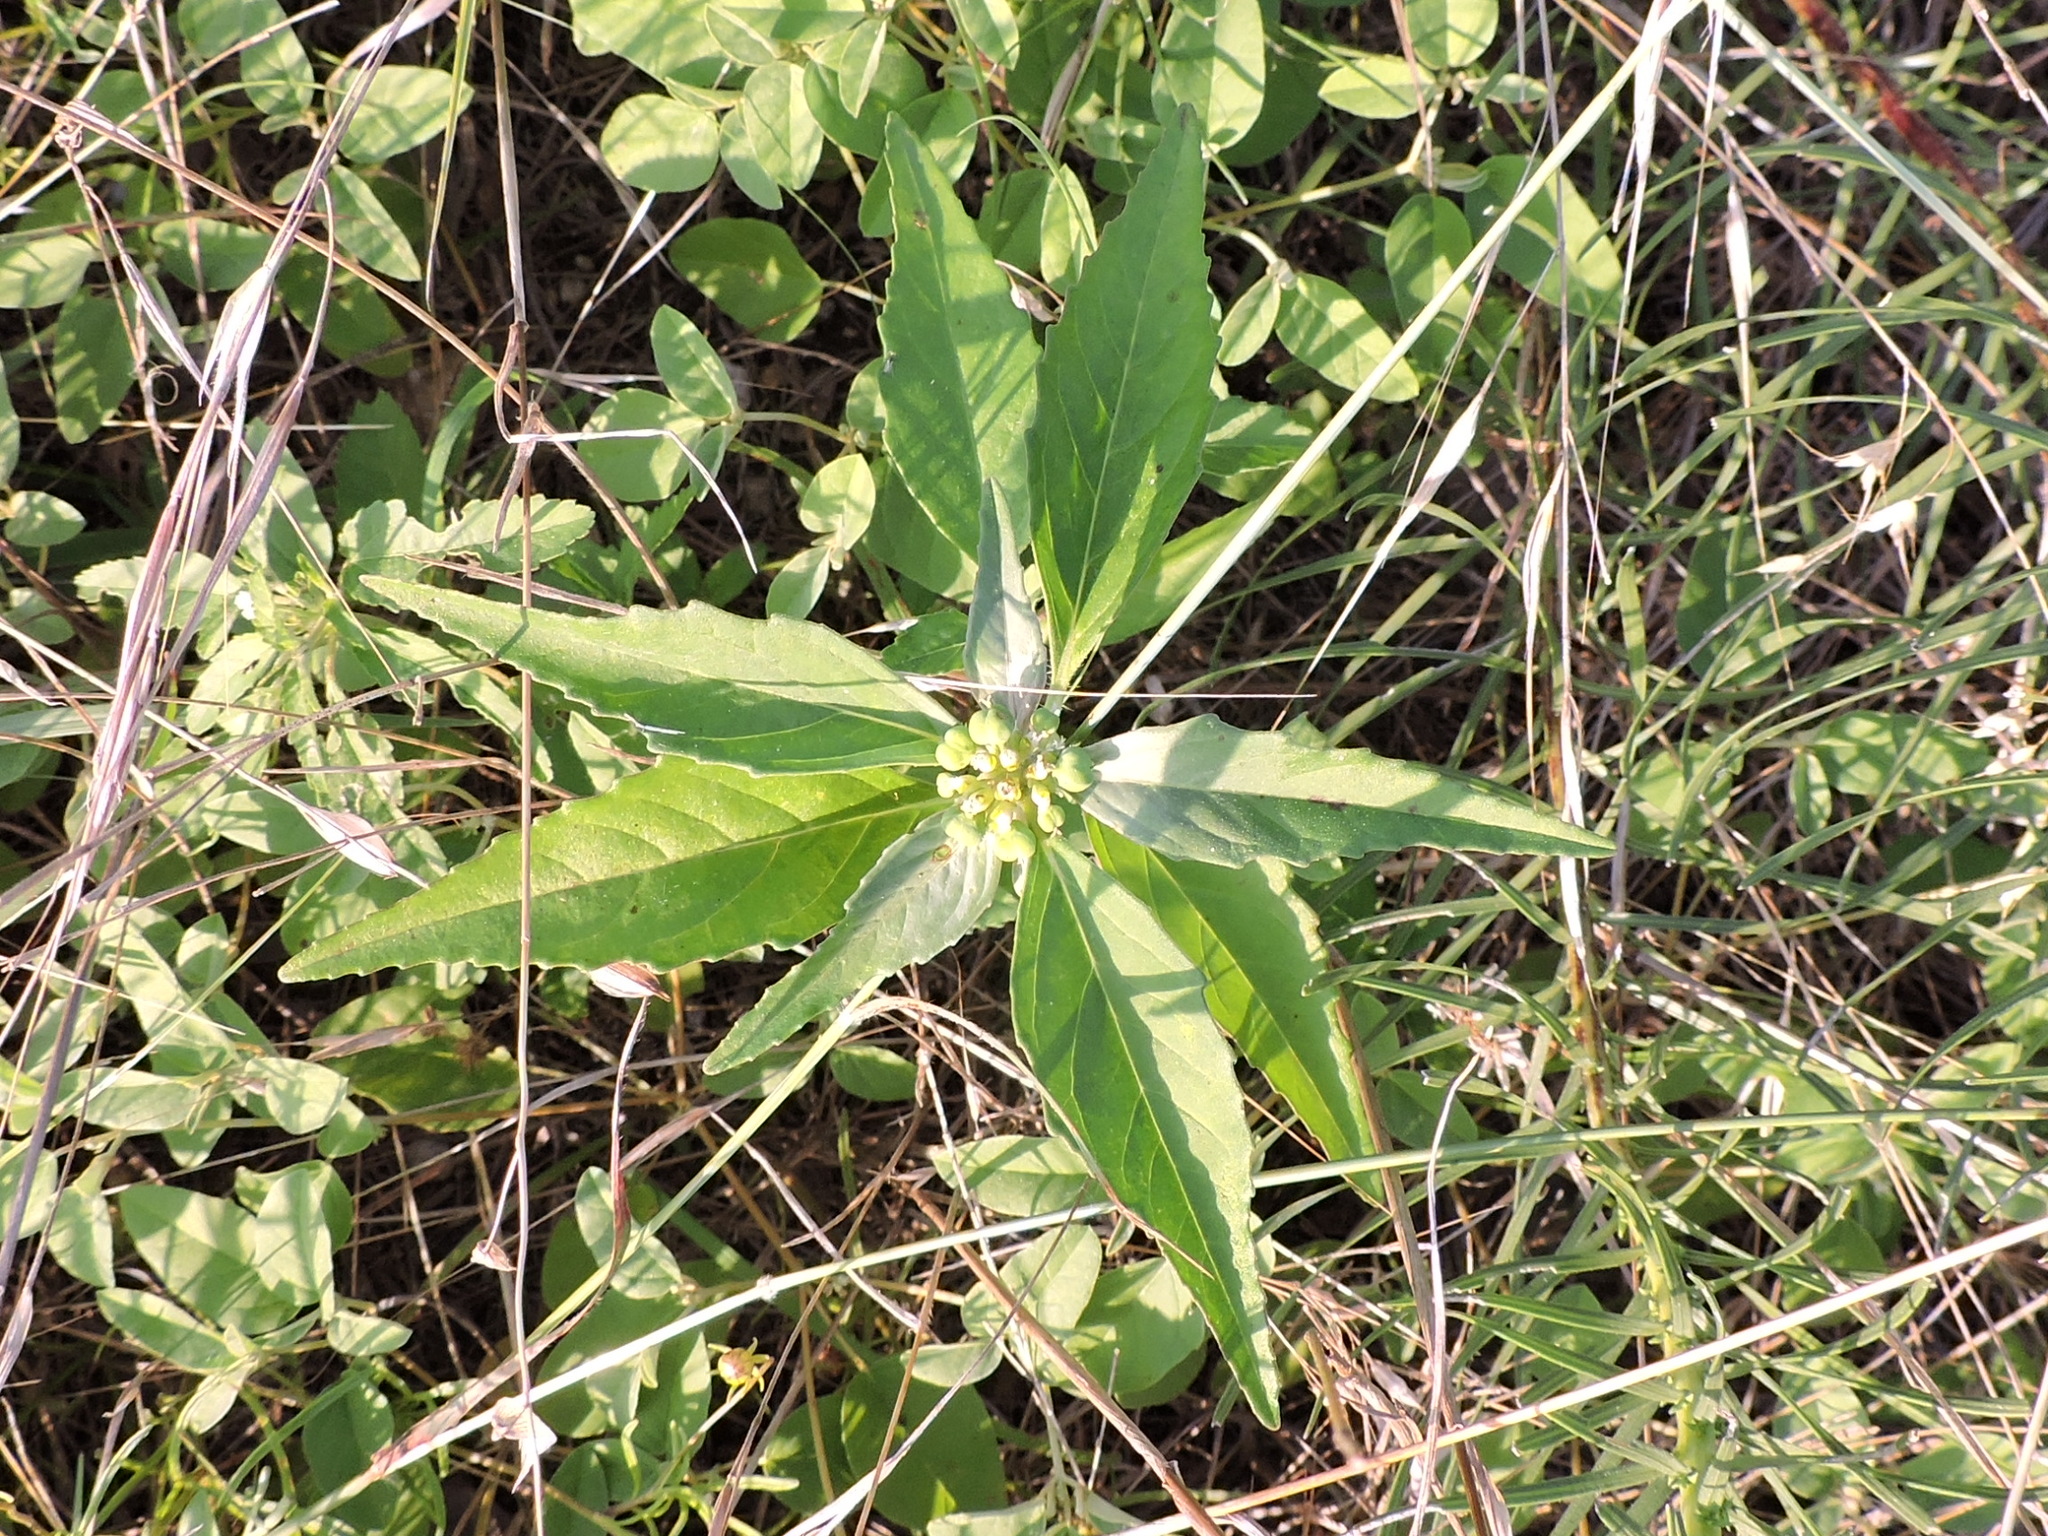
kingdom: Plantae
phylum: Tracheophyta
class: Magnoliopsida
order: Malpighiales
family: Euphorbiaceae
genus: Euphorbia
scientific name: Euphorbia dentata
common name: Dentate spurge
